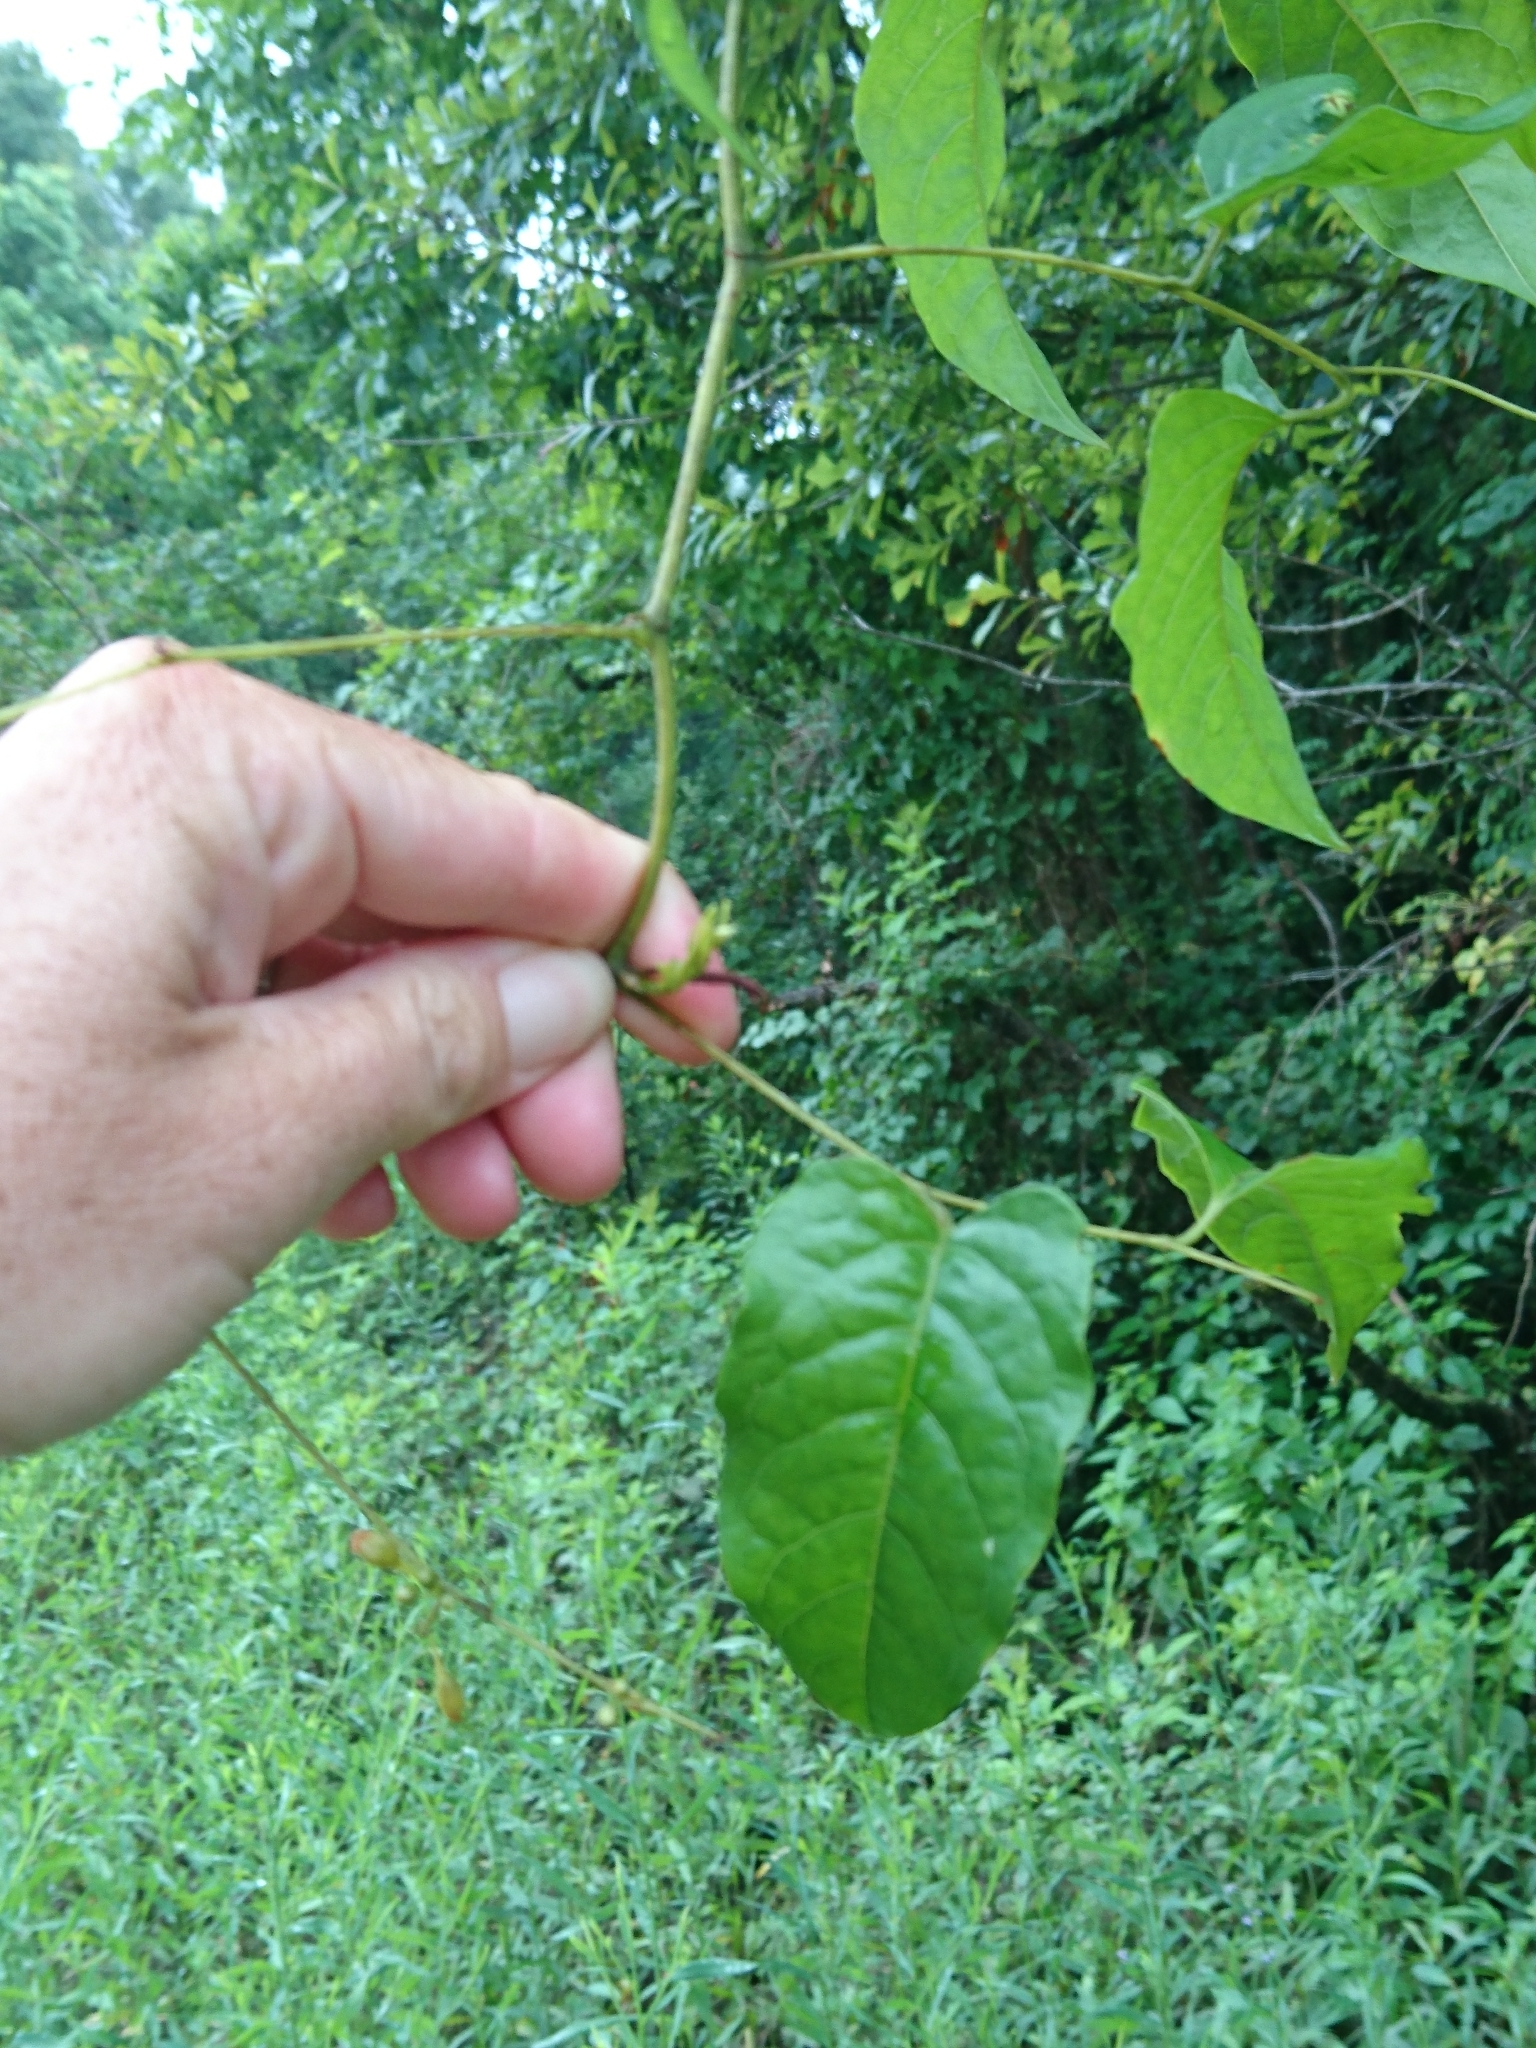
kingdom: Plantae
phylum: Tracheophyta
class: Magnoliopsida
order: Caryophyllales
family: Polygonaceae
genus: Brunnichia
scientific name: Brunnichia ovata
